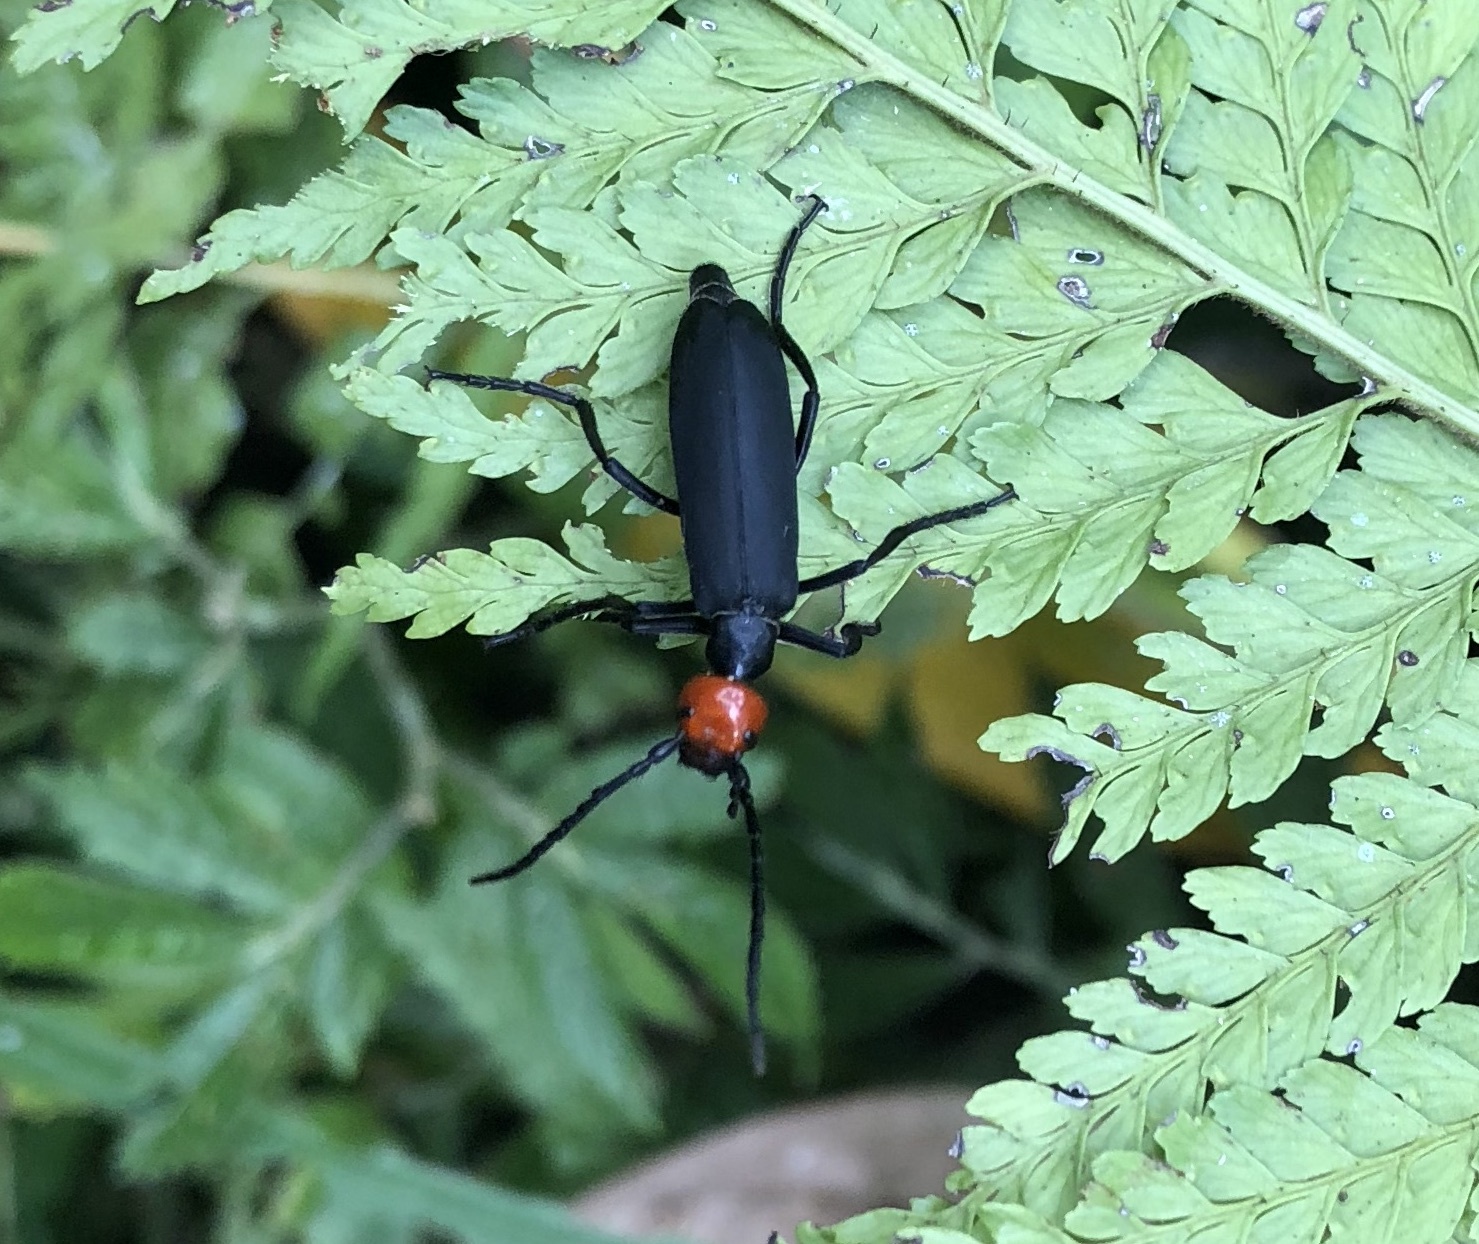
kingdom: Animalia
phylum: Arthropoda
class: Insecta
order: Coleoptera
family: Meloidae
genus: Epicauta
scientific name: Epicauta hirticornis
